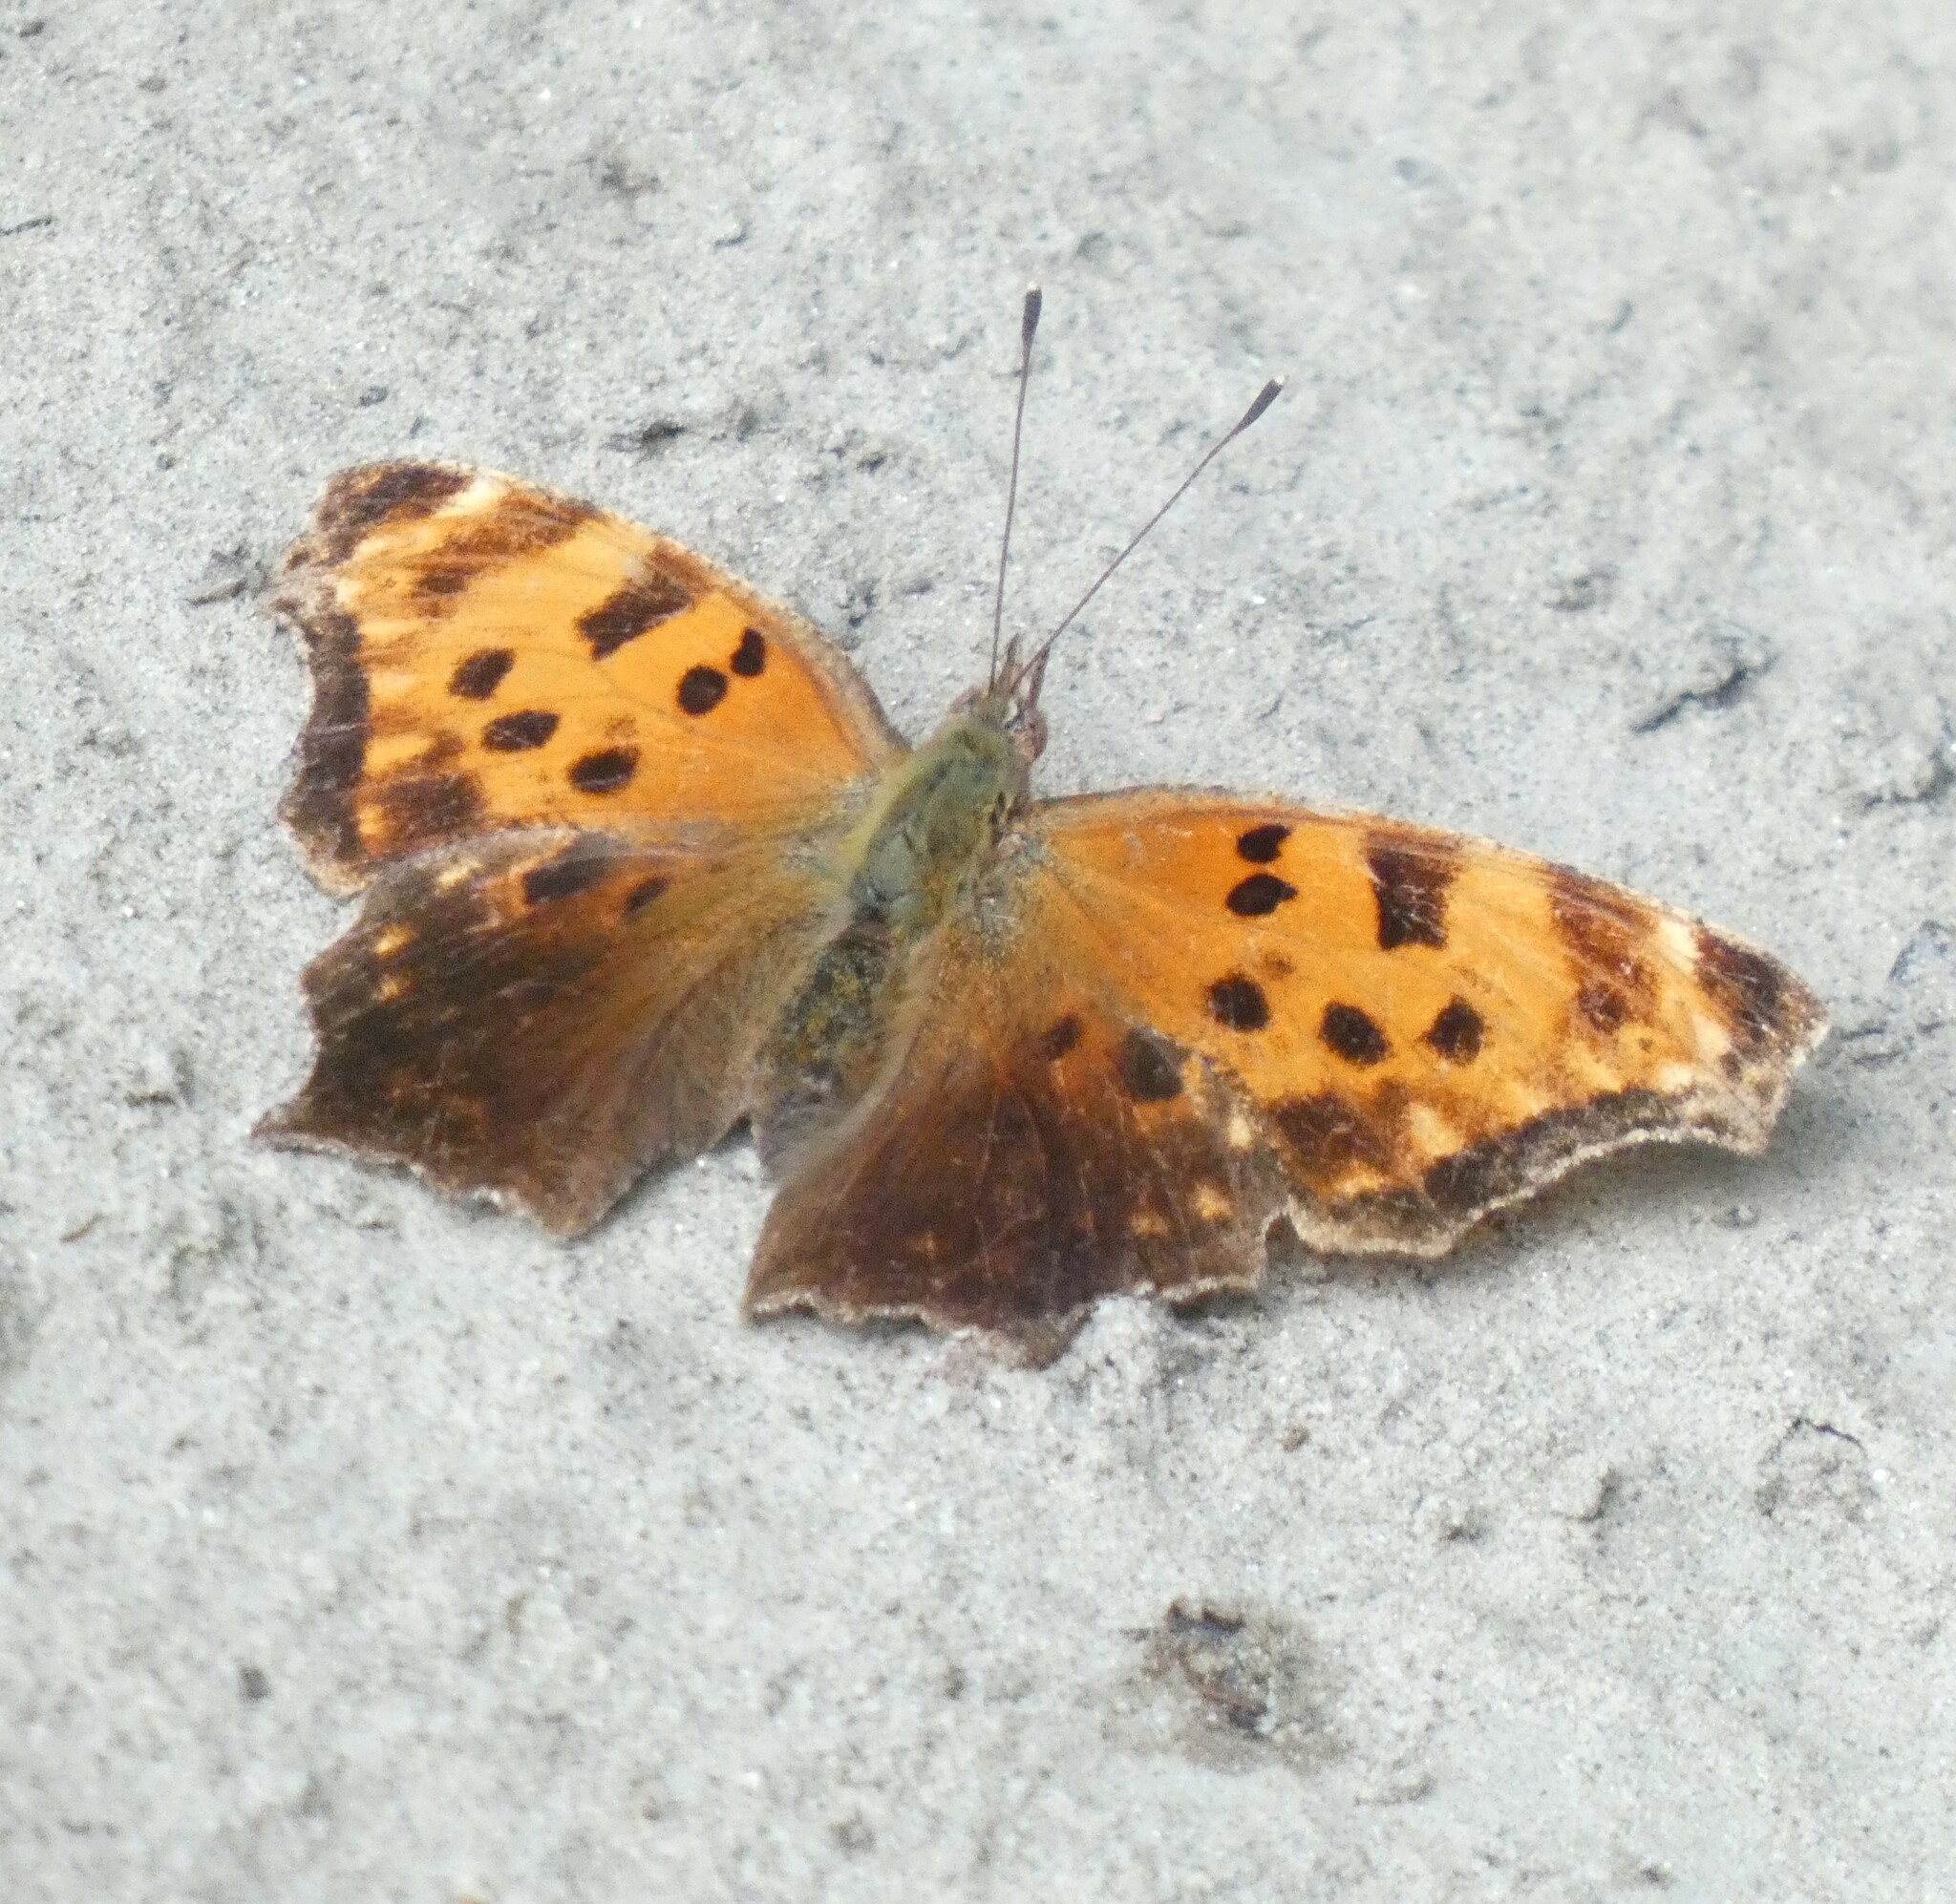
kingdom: Animalia
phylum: Arthropoda
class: Insecta
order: Lepidoptera
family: Nymphalidae
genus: Polygonia
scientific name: Polygonia comma
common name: Eastern comma
